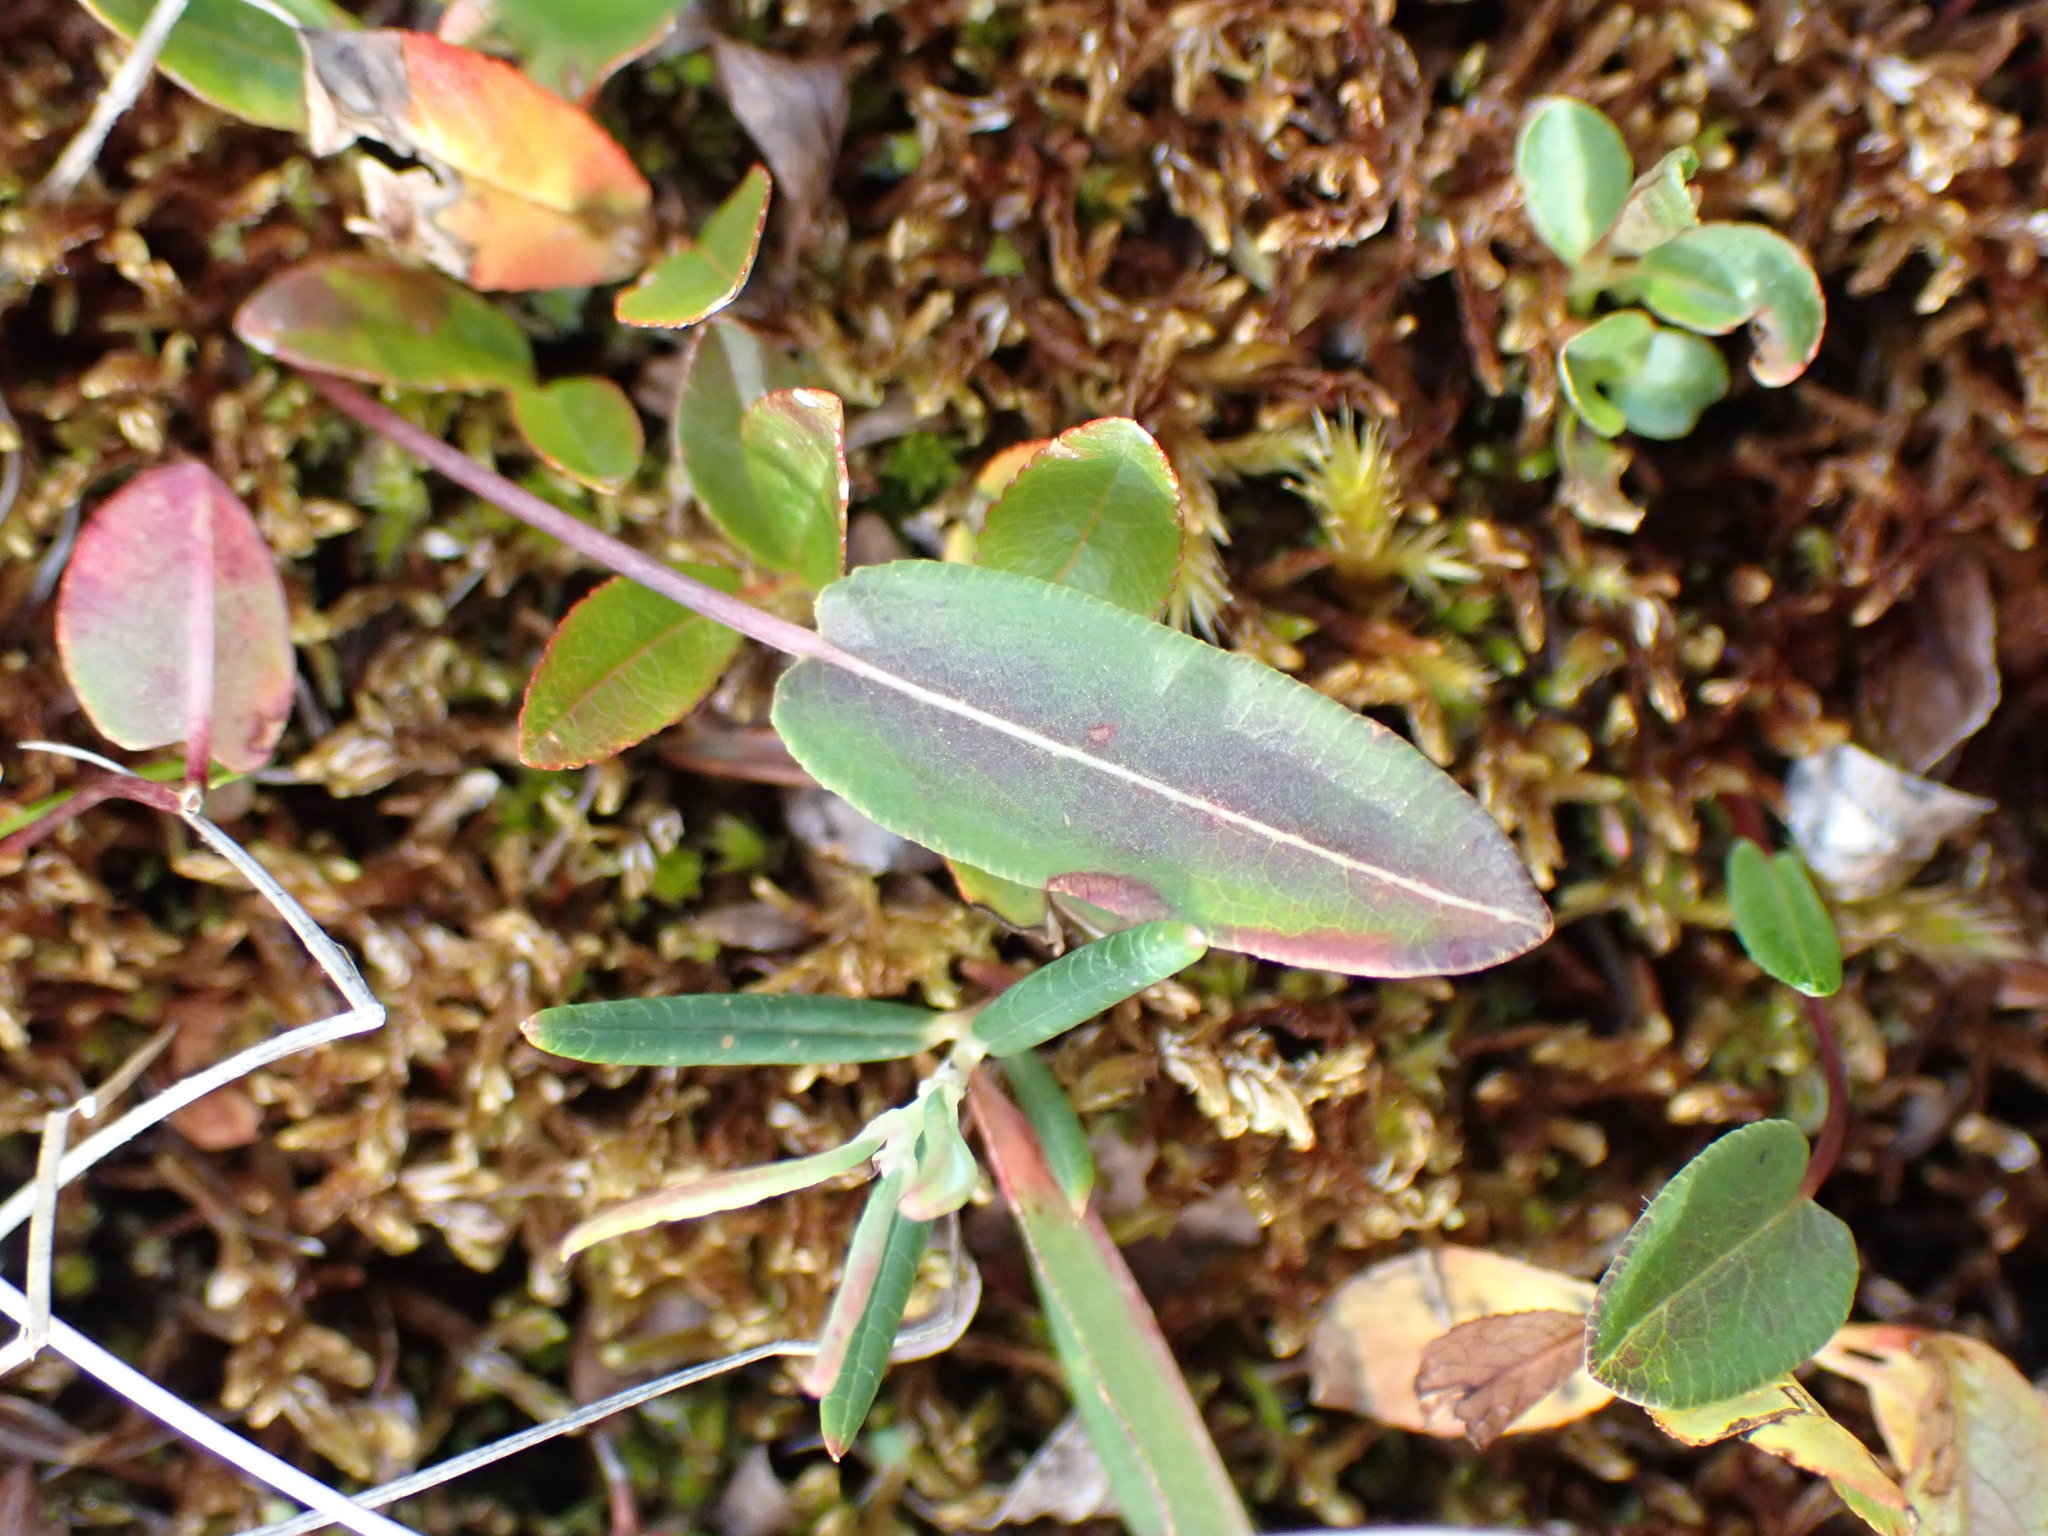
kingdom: Plantae
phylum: Tracheophyta
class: Magnoliopsida
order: Caryophyllales
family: Polygonaceae
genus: Bistorta
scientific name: Bistorta vivipara
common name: Alpine bistort
